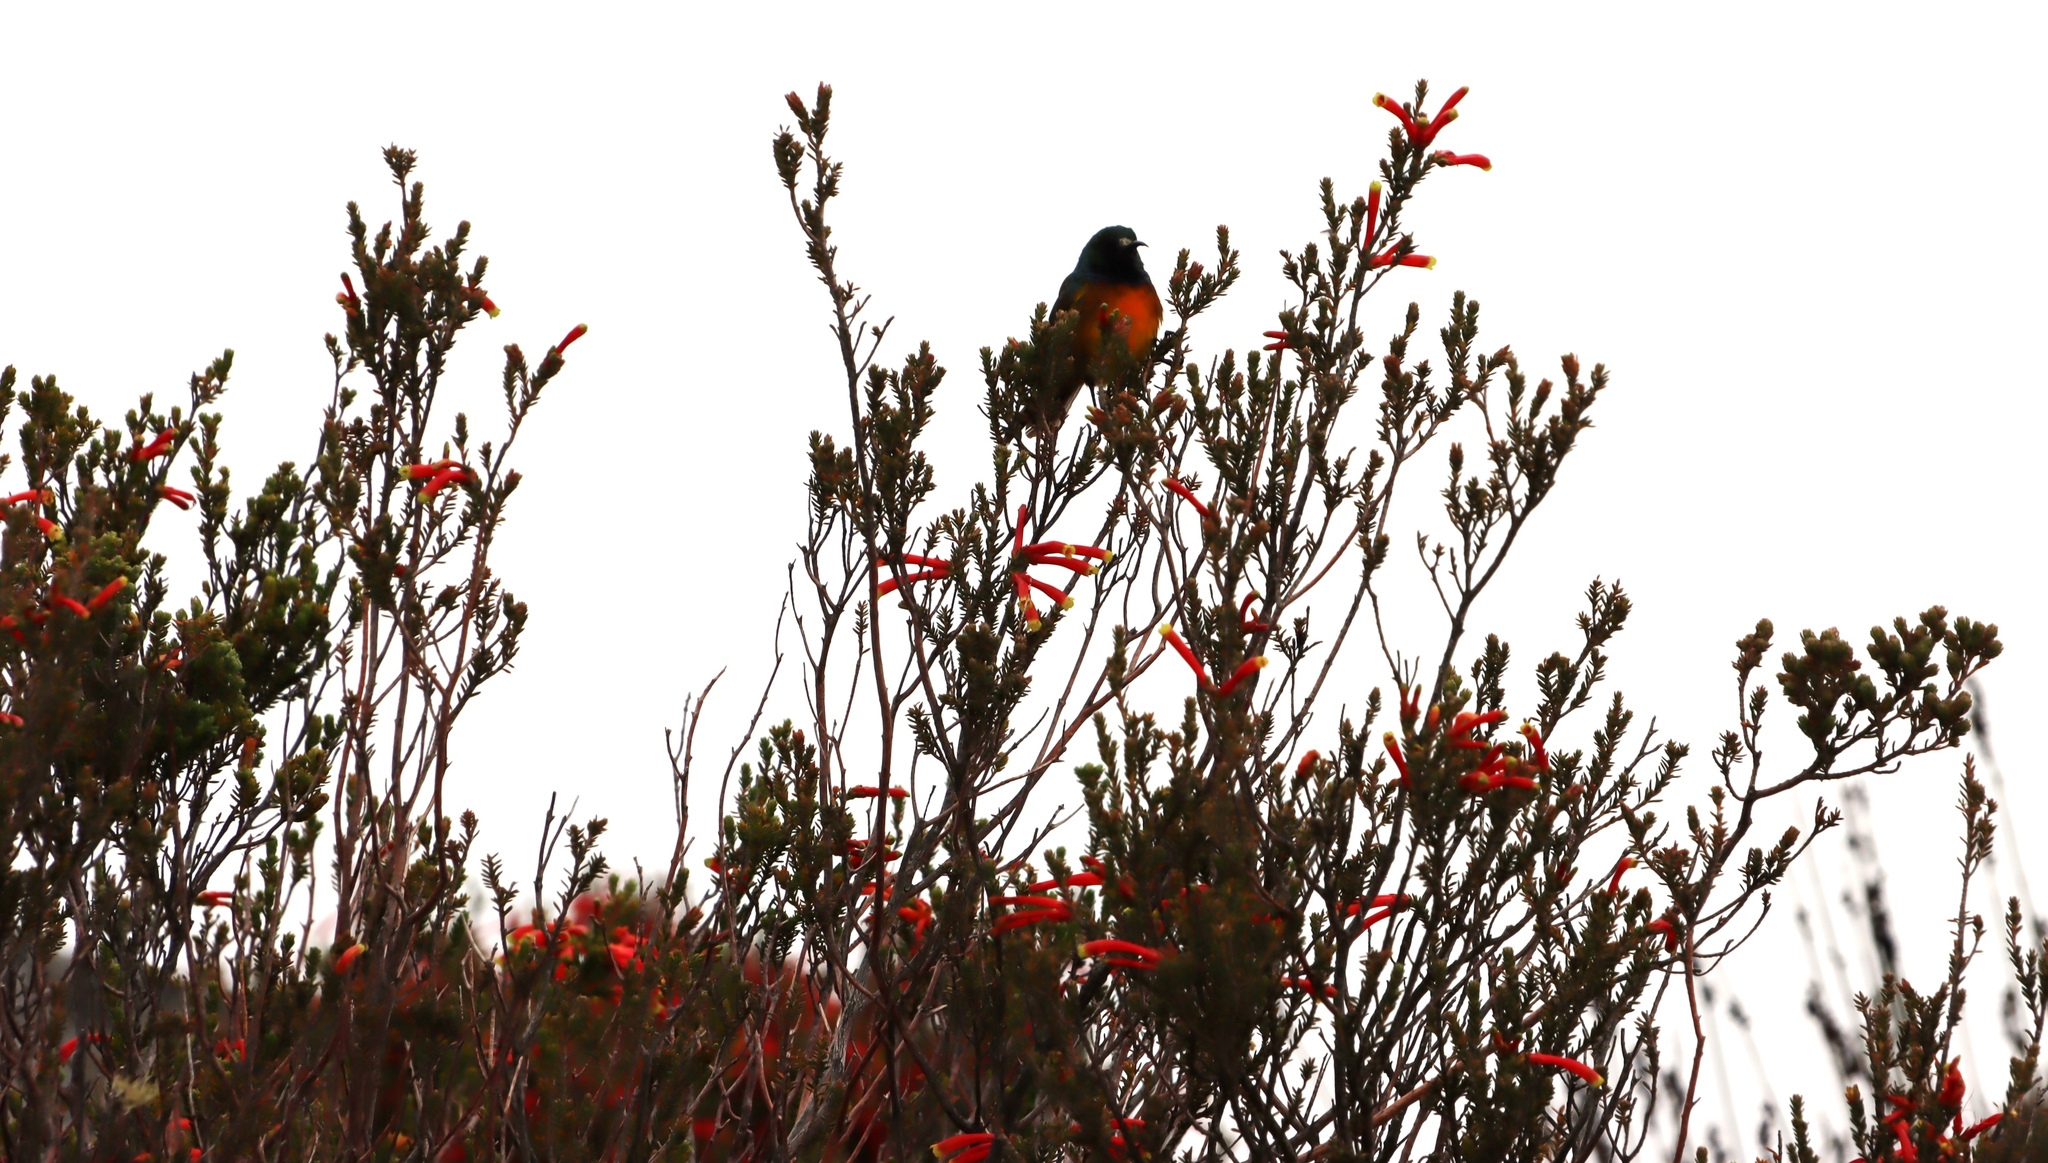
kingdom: Plantae
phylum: Tracheophyta
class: Magnoliopsida
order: Ericales
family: Ericaceae
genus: Erica
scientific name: Erica discolor
